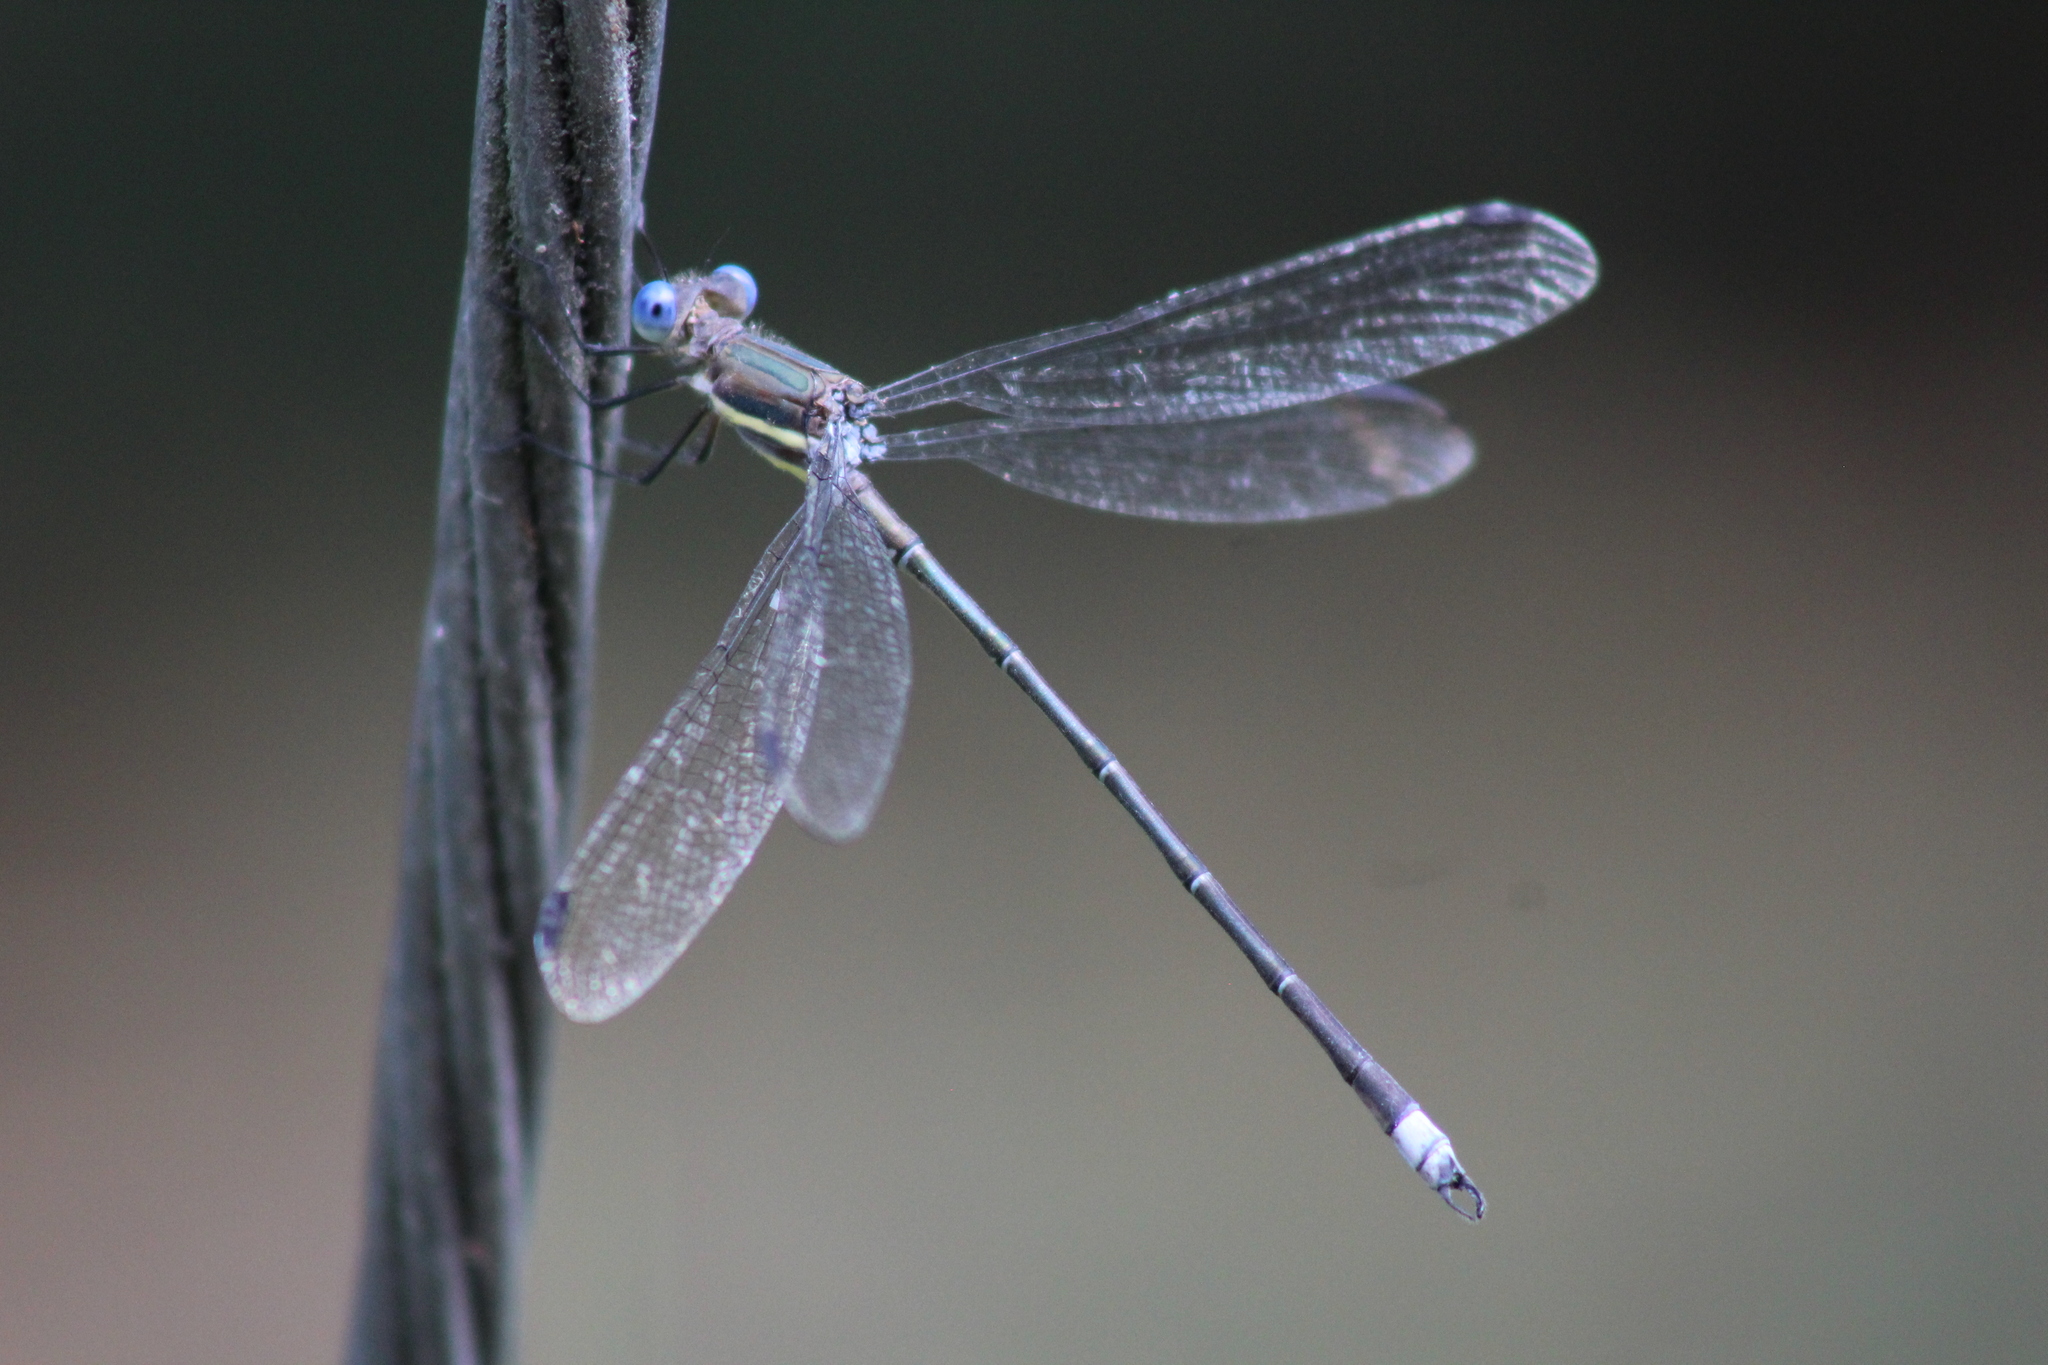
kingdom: Animalia
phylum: Arthropoda
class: Insecta
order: Odonata
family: Lestidae
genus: Archilestes
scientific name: Archilestes grandis
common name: Great spreadwing
